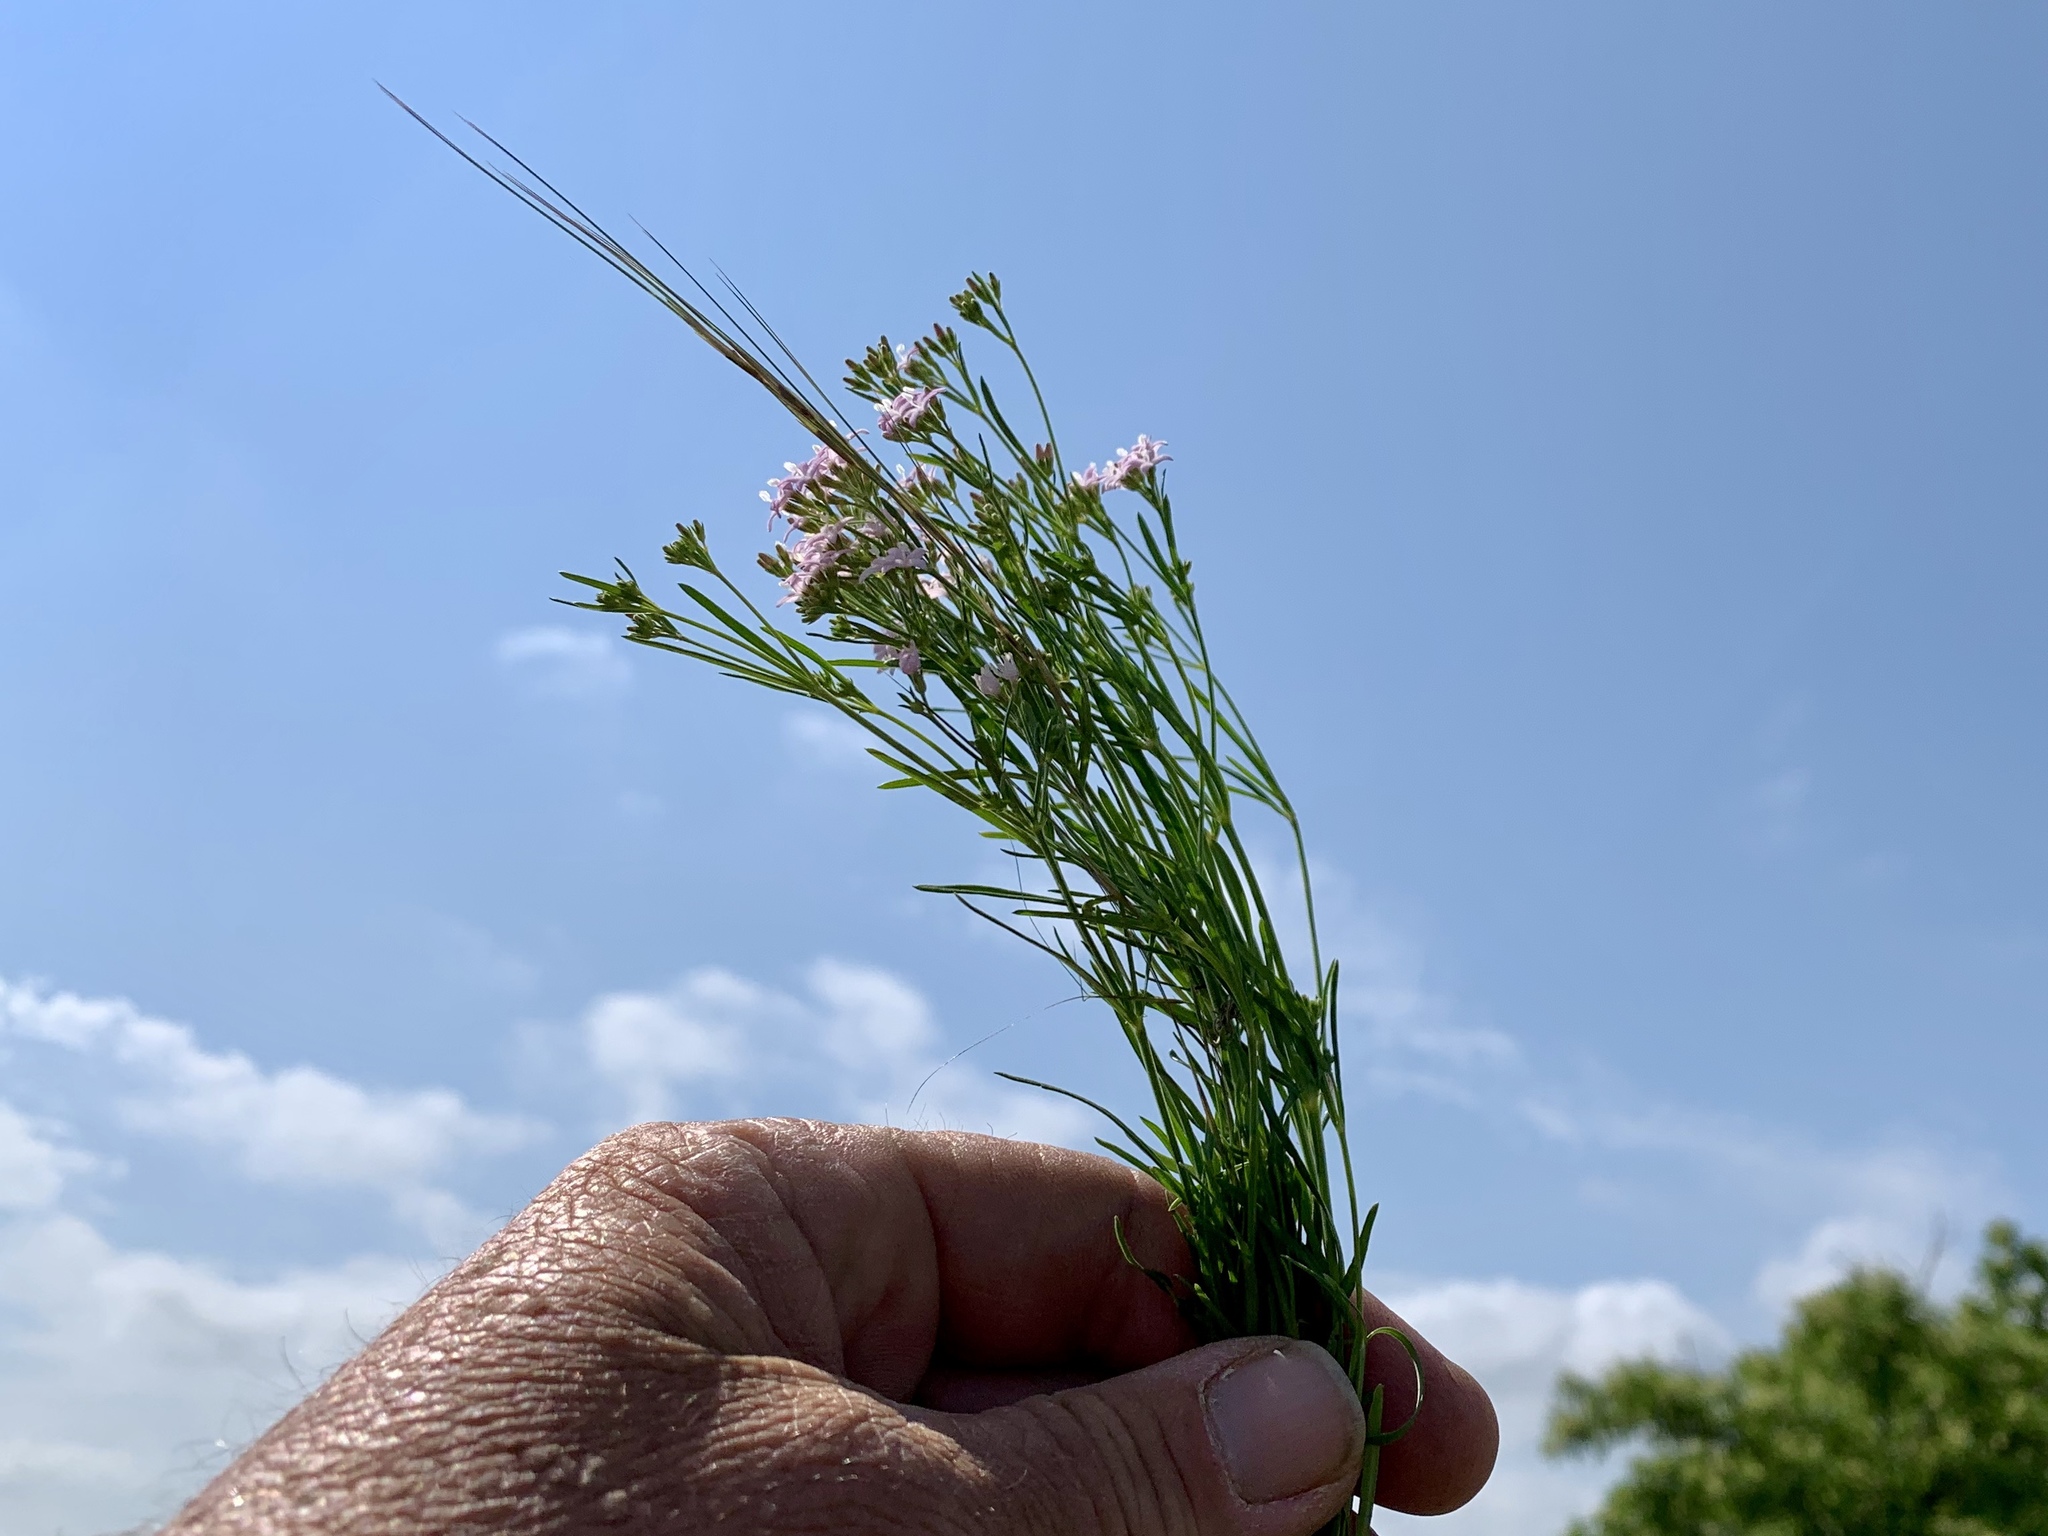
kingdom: Plantae
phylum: Tracheophyta
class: Magnoliopsida
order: Gentianales
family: Rubiaceae
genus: Stenaria
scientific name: Stenaria nigricans
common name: Diamondflowers
